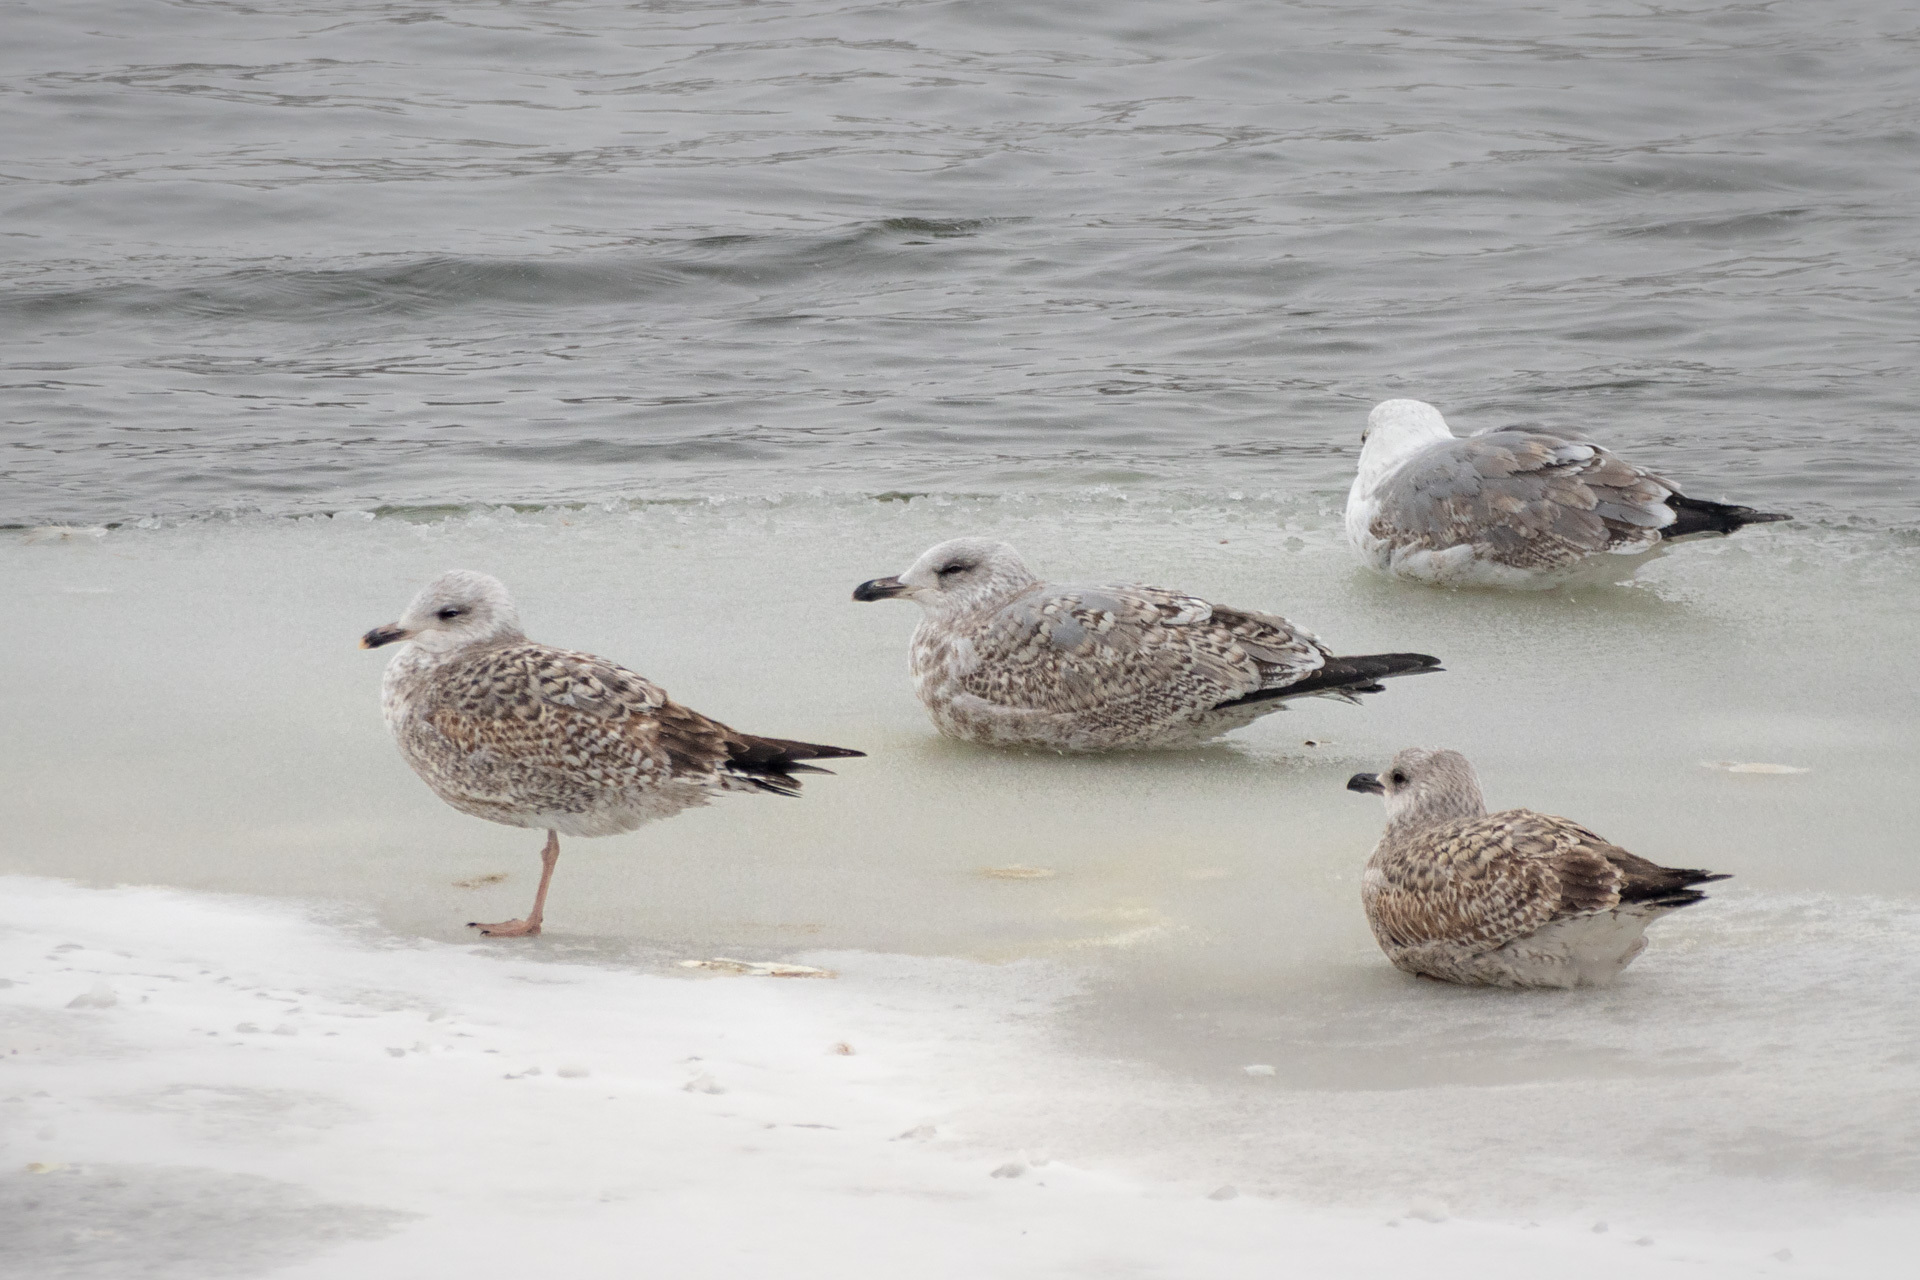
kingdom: Animalia
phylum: Chordata
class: Aves
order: Charadriiformes
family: Laridae
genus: Larus
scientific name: Larus argentatus
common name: Herring gull
